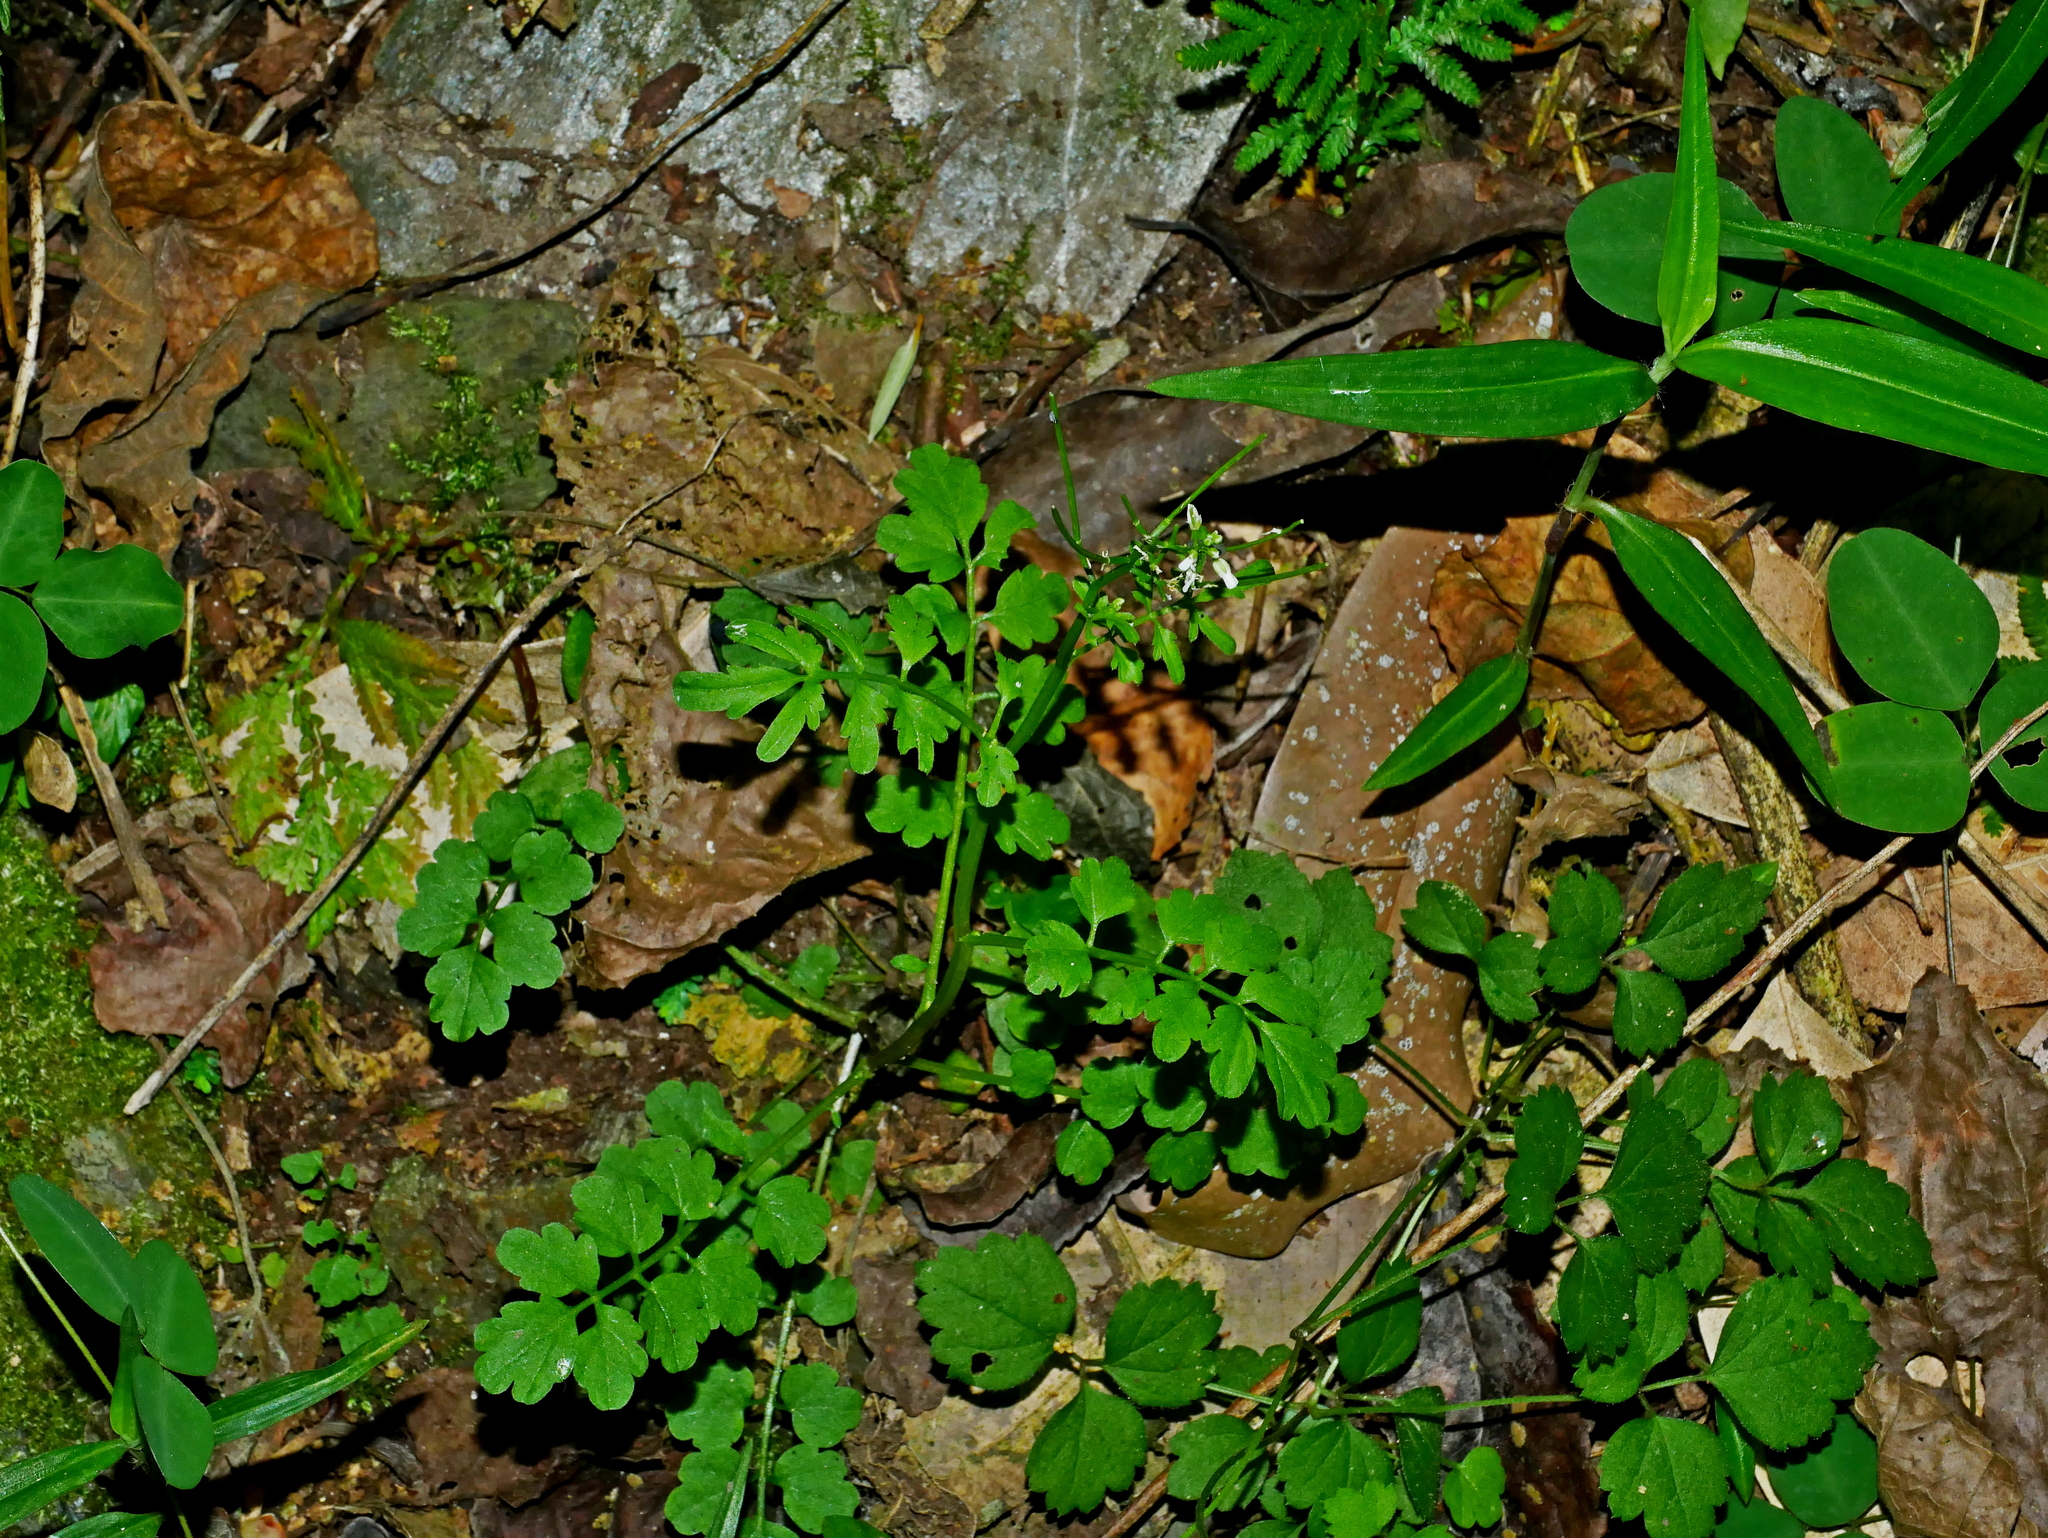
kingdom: Plantae
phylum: Tracheophyta
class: Magnoliopsida
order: Brassicales
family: Brassicaceae
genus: Cardamine
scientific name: Cardamine flexuosa
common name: Woodland bittercress
